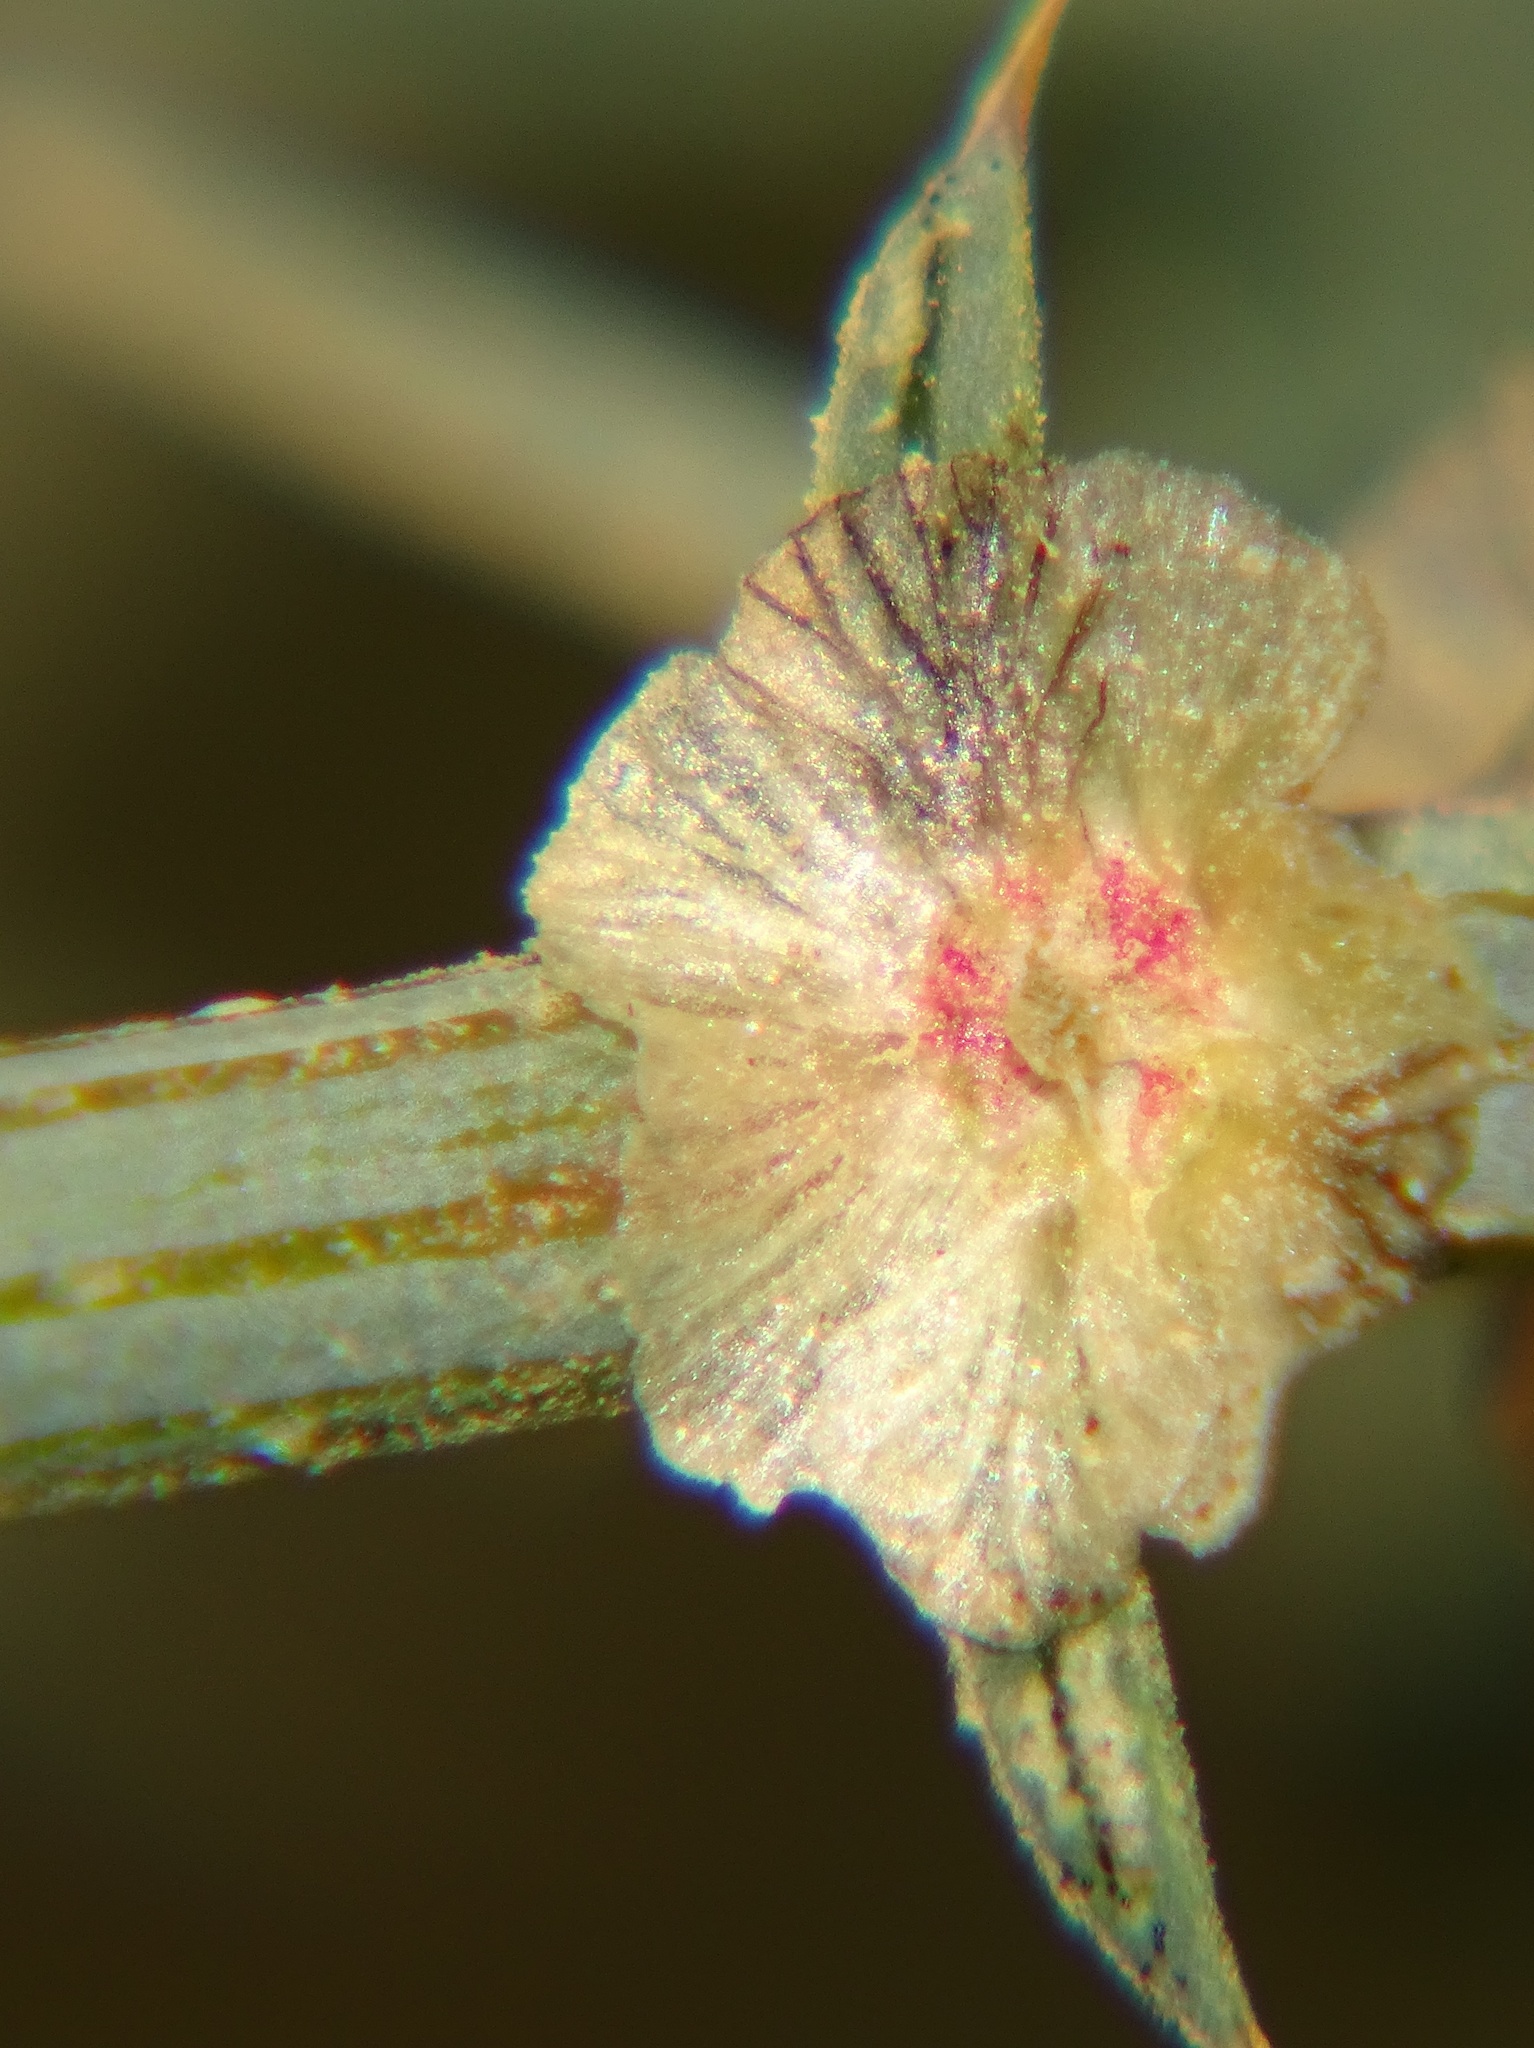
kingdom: Plantae
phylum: Tracheophyta
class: Magnoliopsida
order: Caryophyllales
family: Amaranthaceae
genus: Salsola
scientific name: Salsola australis
